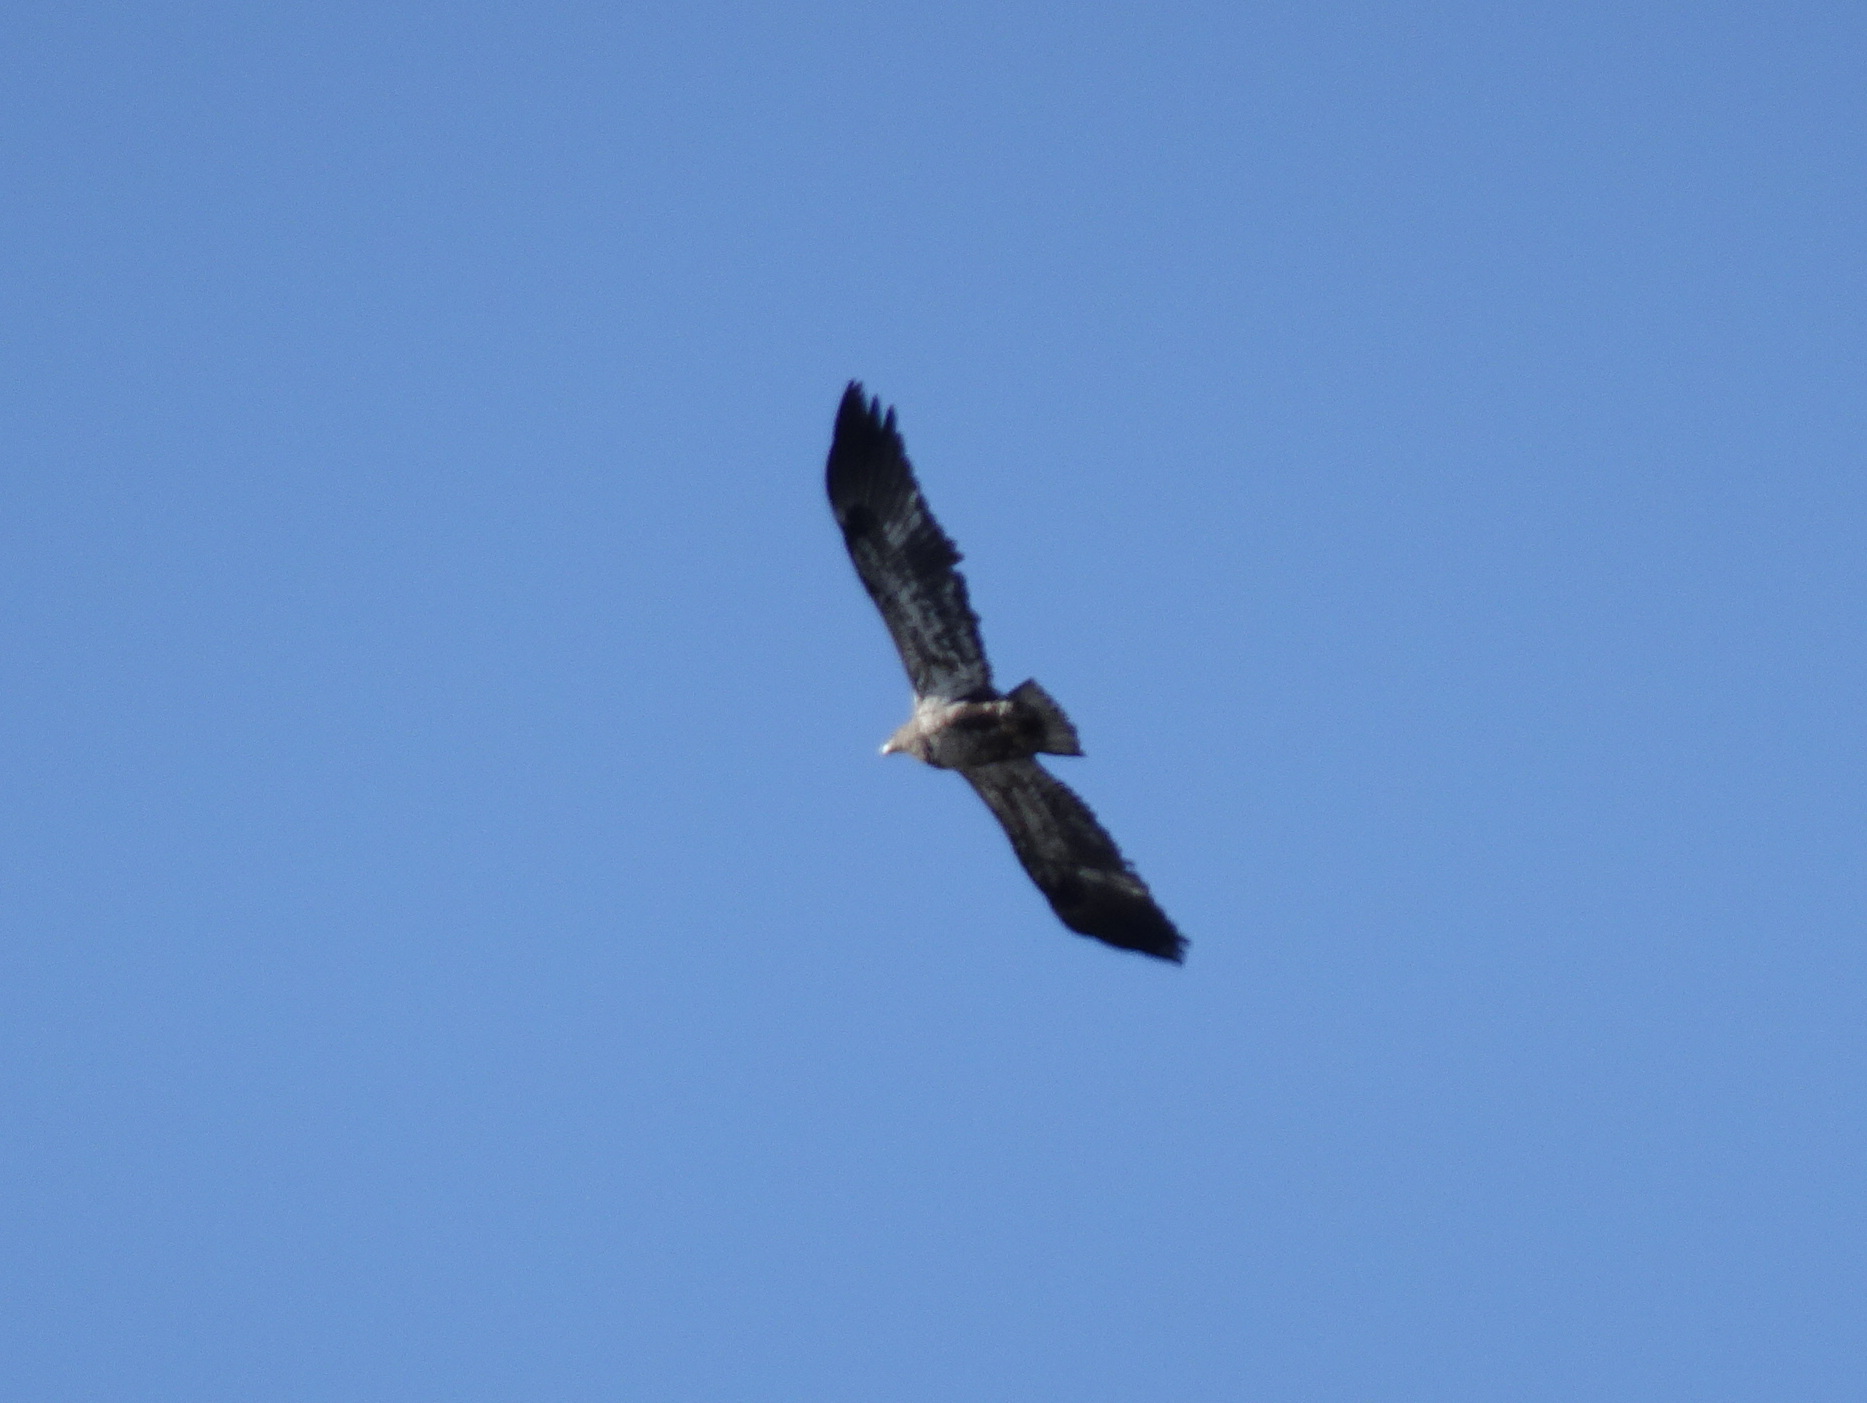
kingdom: Animalia
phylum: Chordata
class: Aves
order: Accipitriformes
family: Accipitridae
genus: Haliaeetus
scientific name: Haliaeetus leucocephalus
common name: Bald eagle
